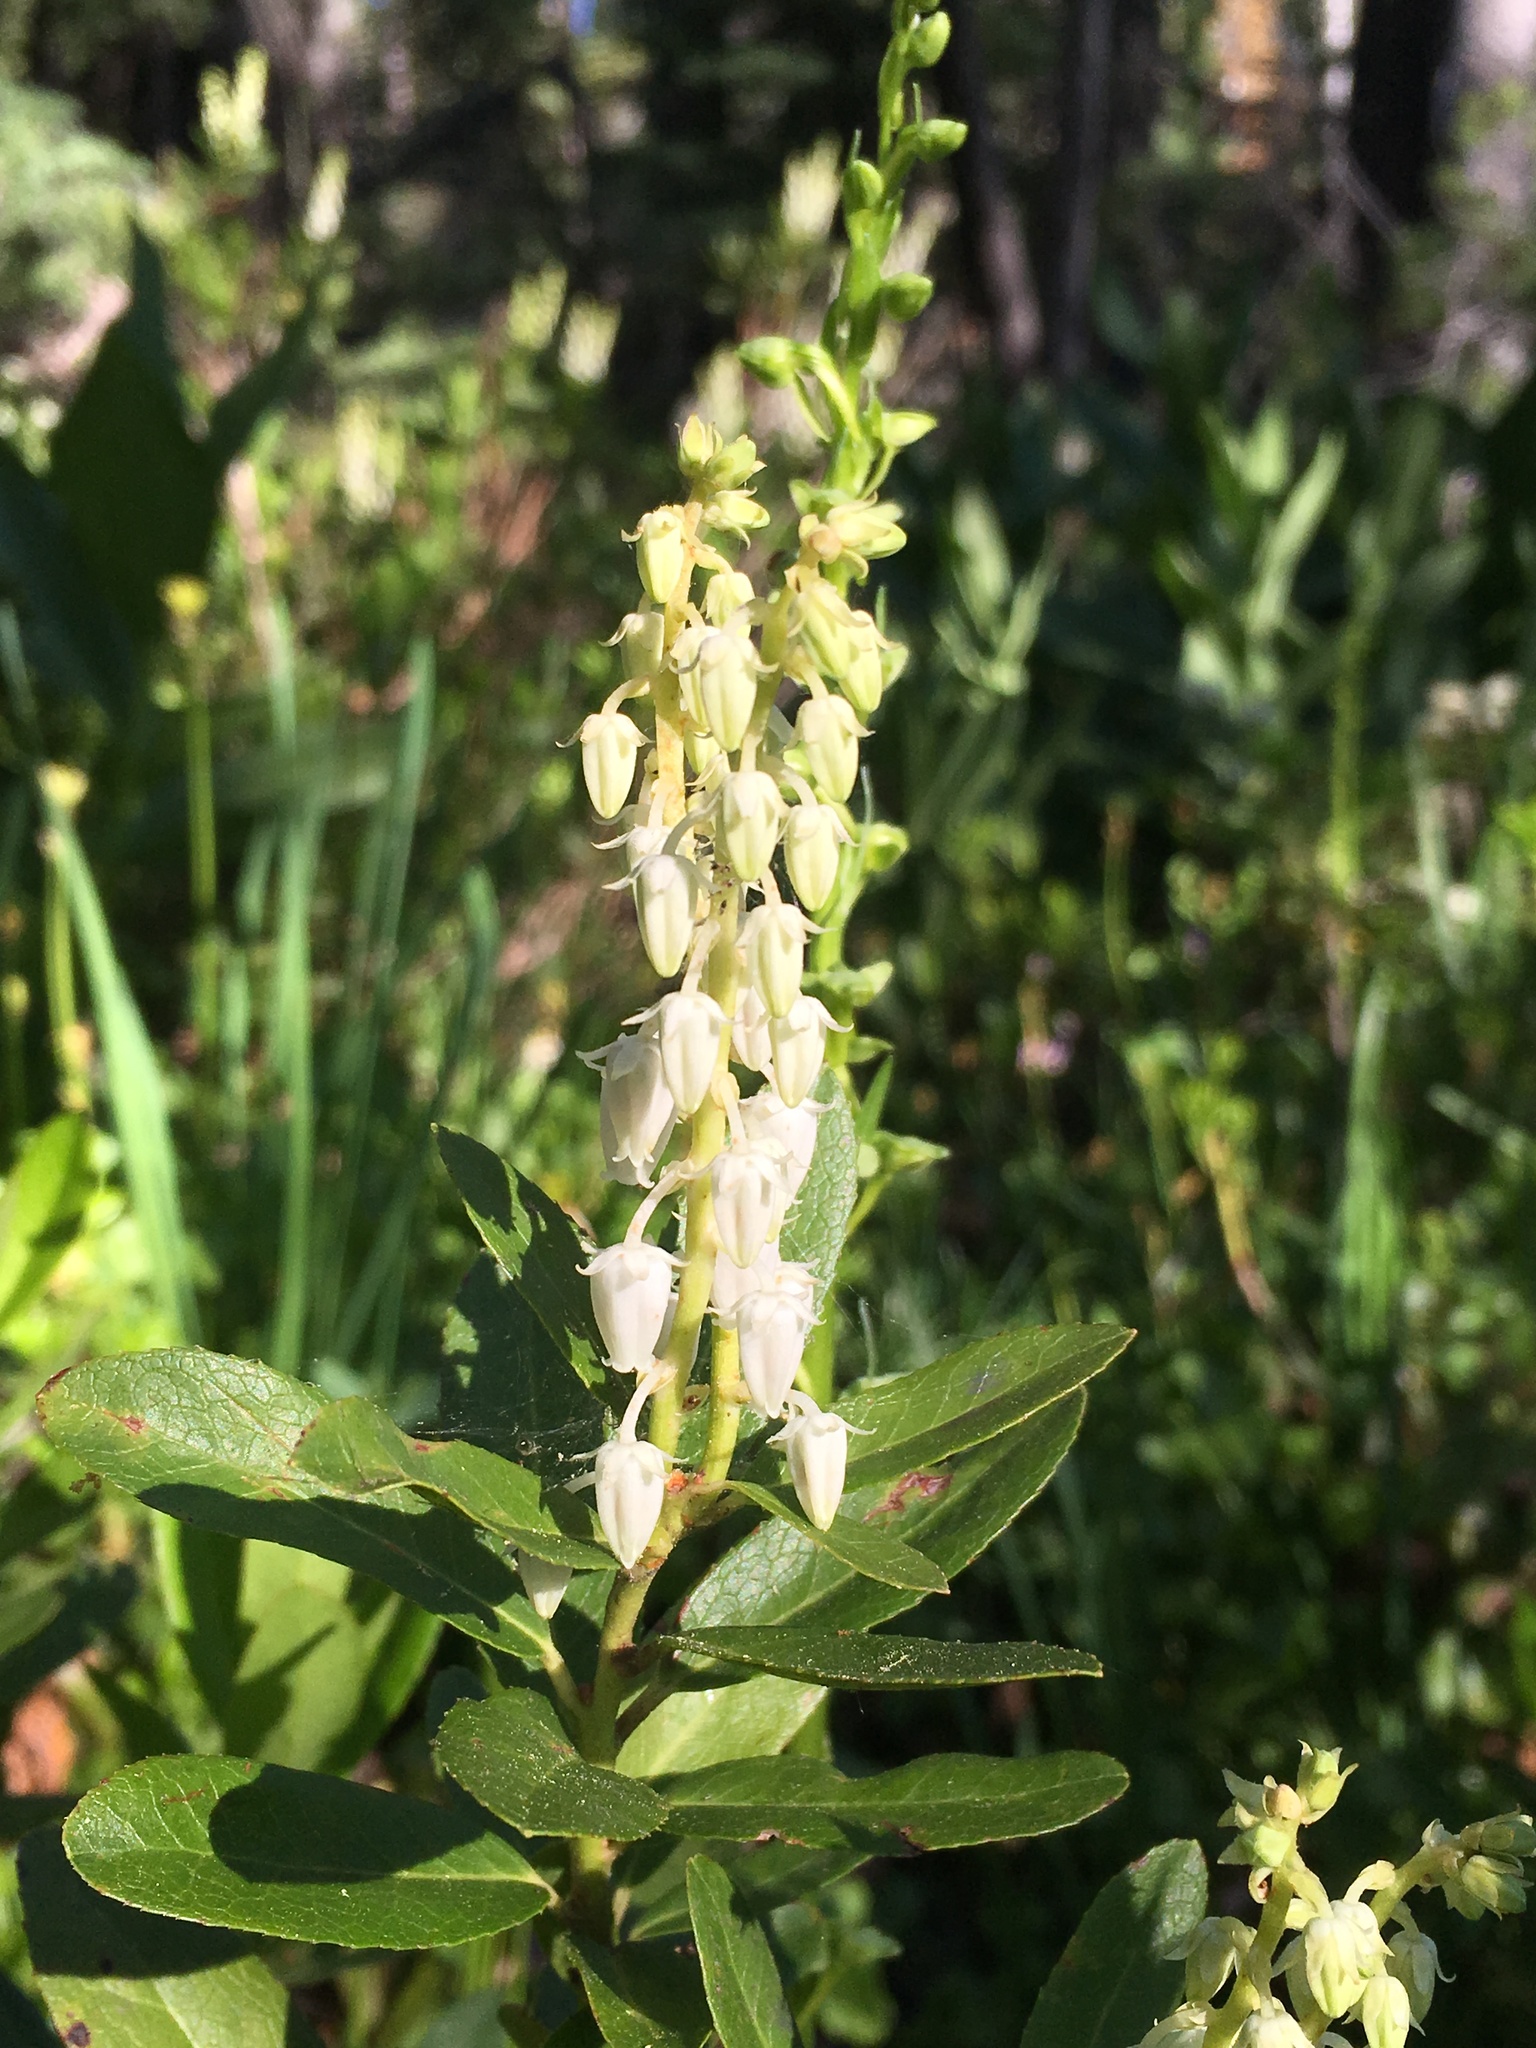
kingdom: Plantae
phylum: Tracheophyta
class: Magnoliopsida
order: Ericales
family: Ericaceae
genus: Leucothoe
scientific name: Leucothoe davisiae
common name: Sierra-laurel
